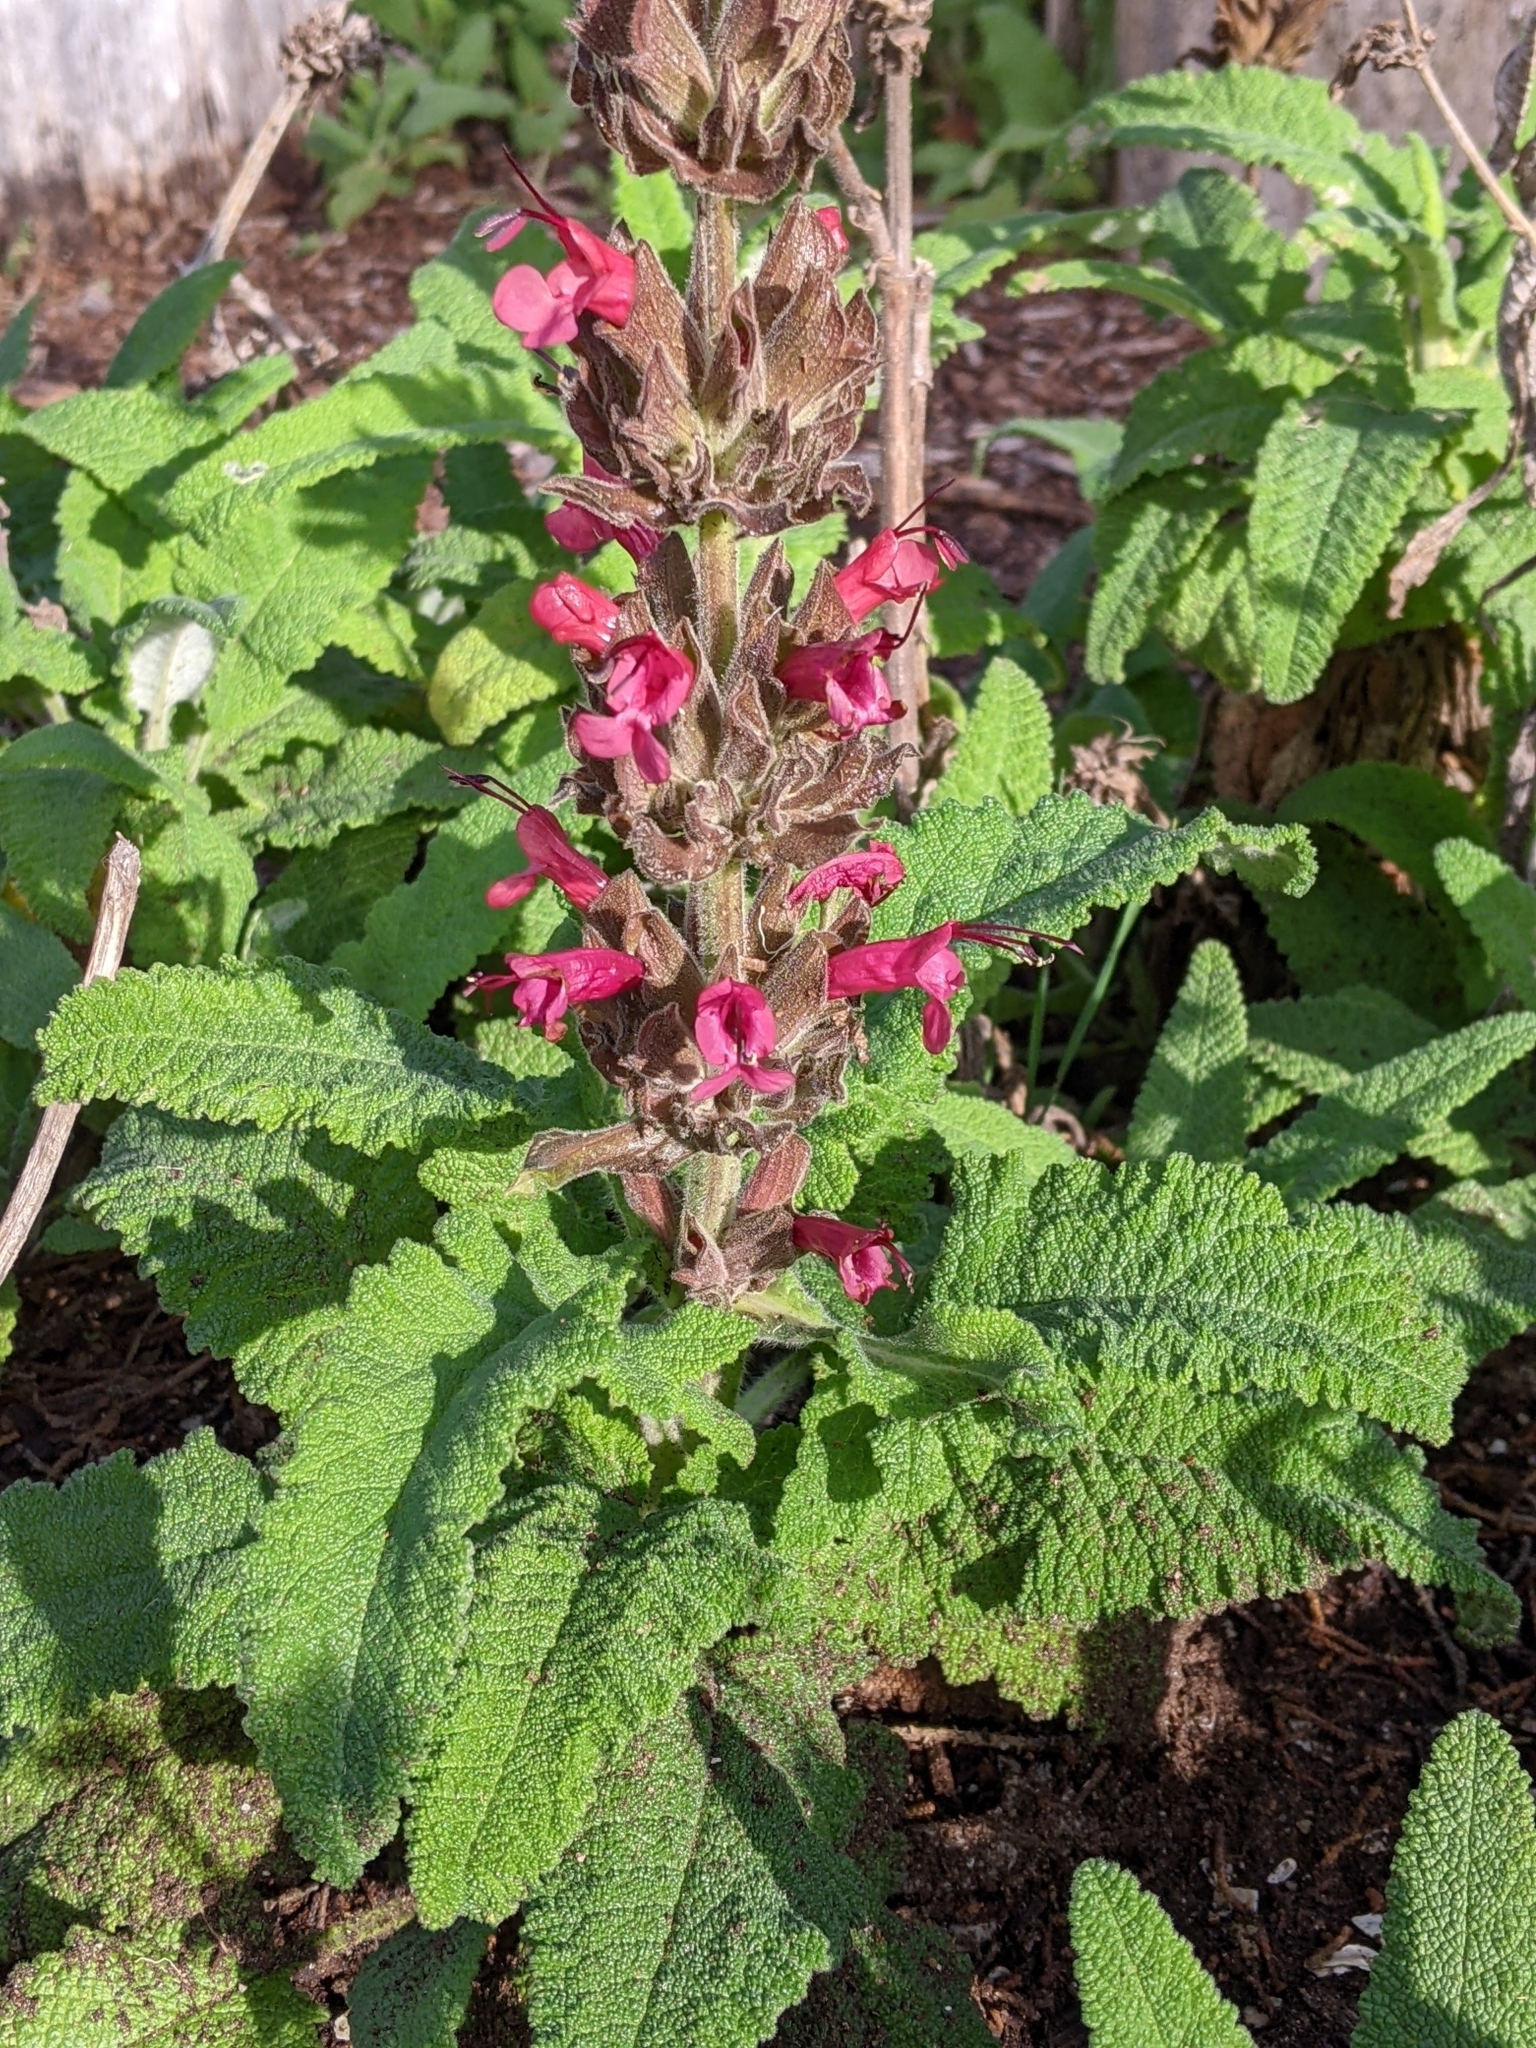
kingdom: Plantae
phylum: Tracheophyta
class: Magnoliopsida
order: Lamiales
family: Lamiaceae
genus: Salvia
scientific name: Salvia spathacea
